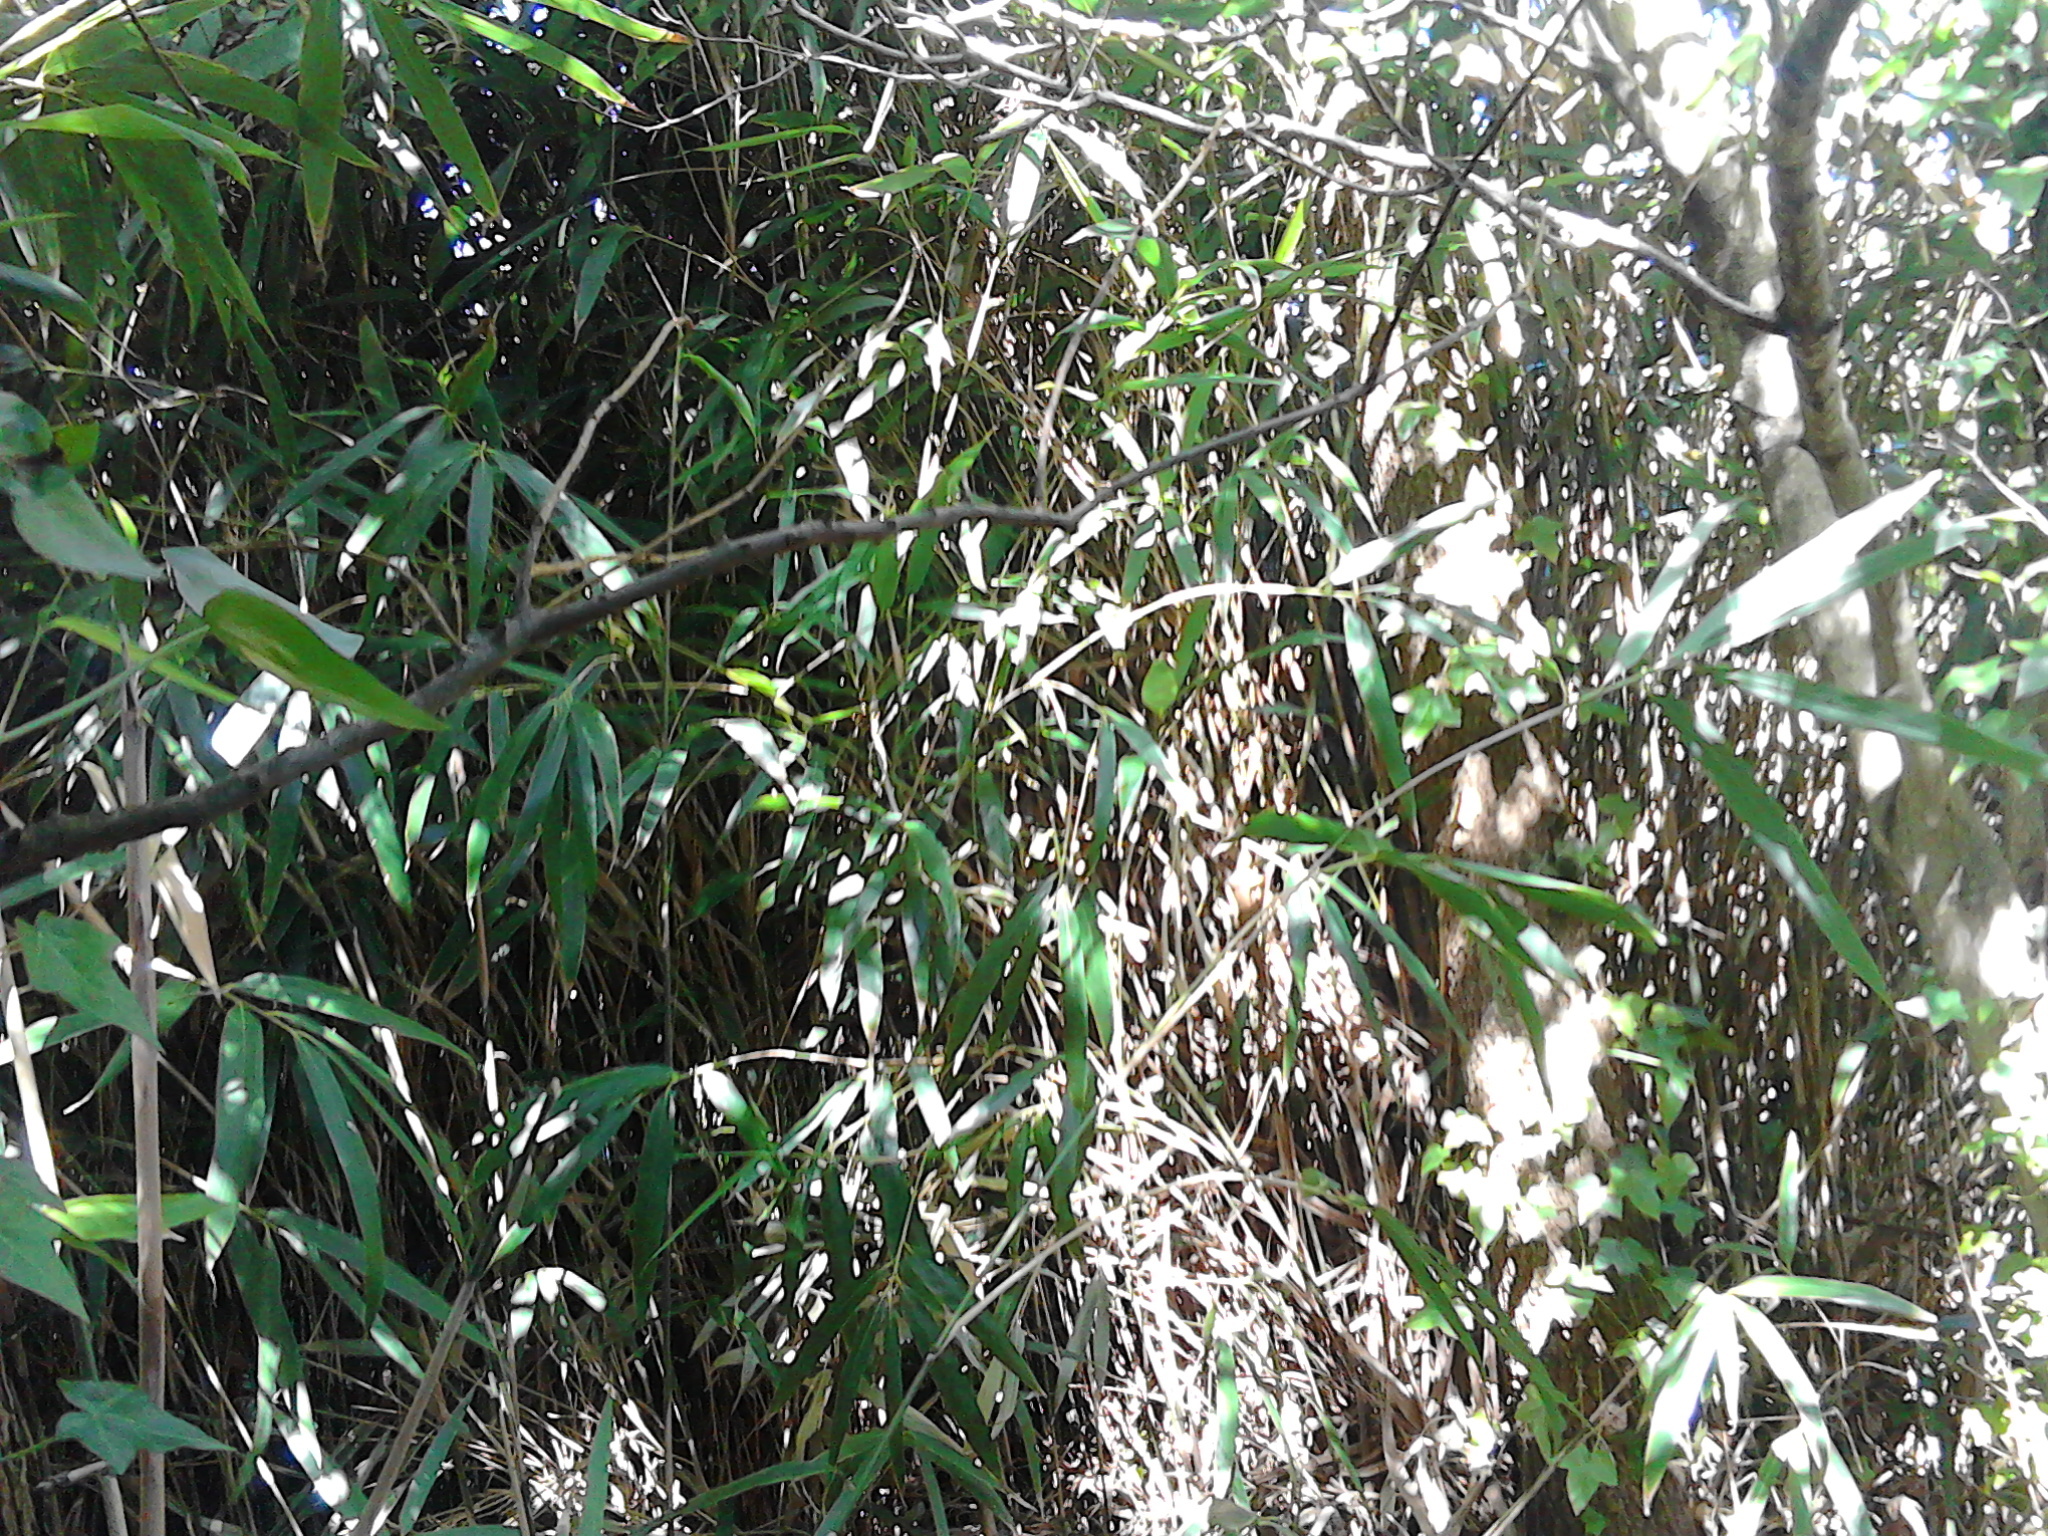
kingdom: Plantae
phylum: Tracheophyta
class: Liliopsida
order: Poales
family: Poaceae
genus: Pseudosasa
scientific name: Pseudosasa japonica
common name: Arrow bamboo
